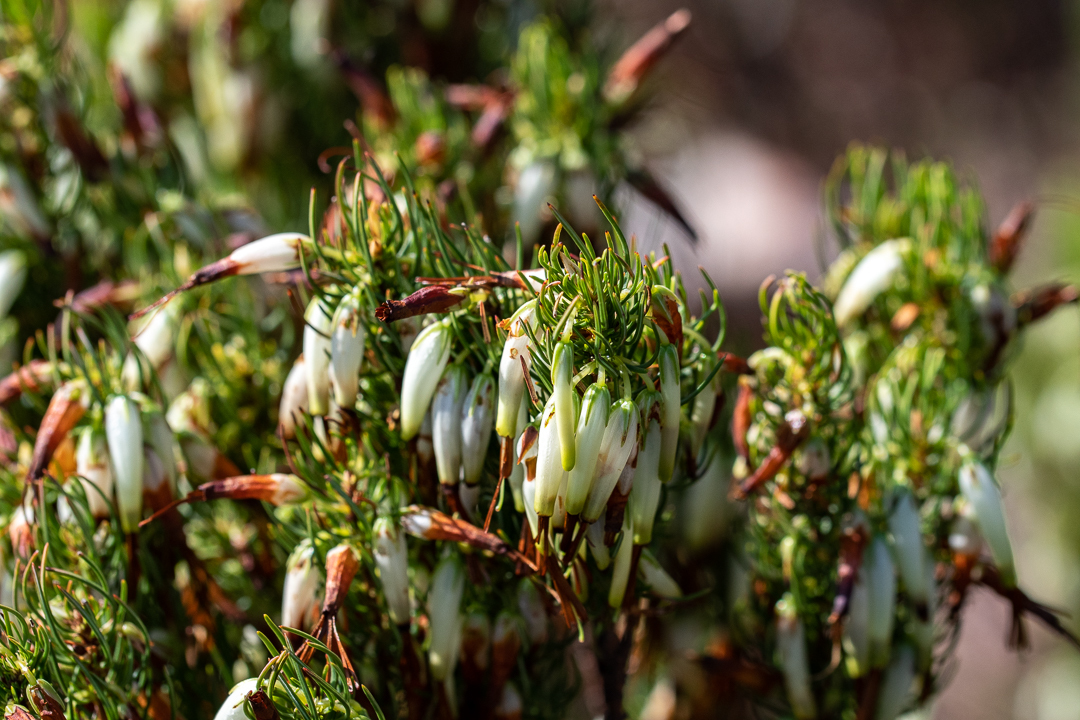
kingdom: Plantae
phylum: Tracheophyta
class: Magnoliopsida
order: Ericales
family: Ericaceae
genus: Erica
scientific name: Erica plukenetii
